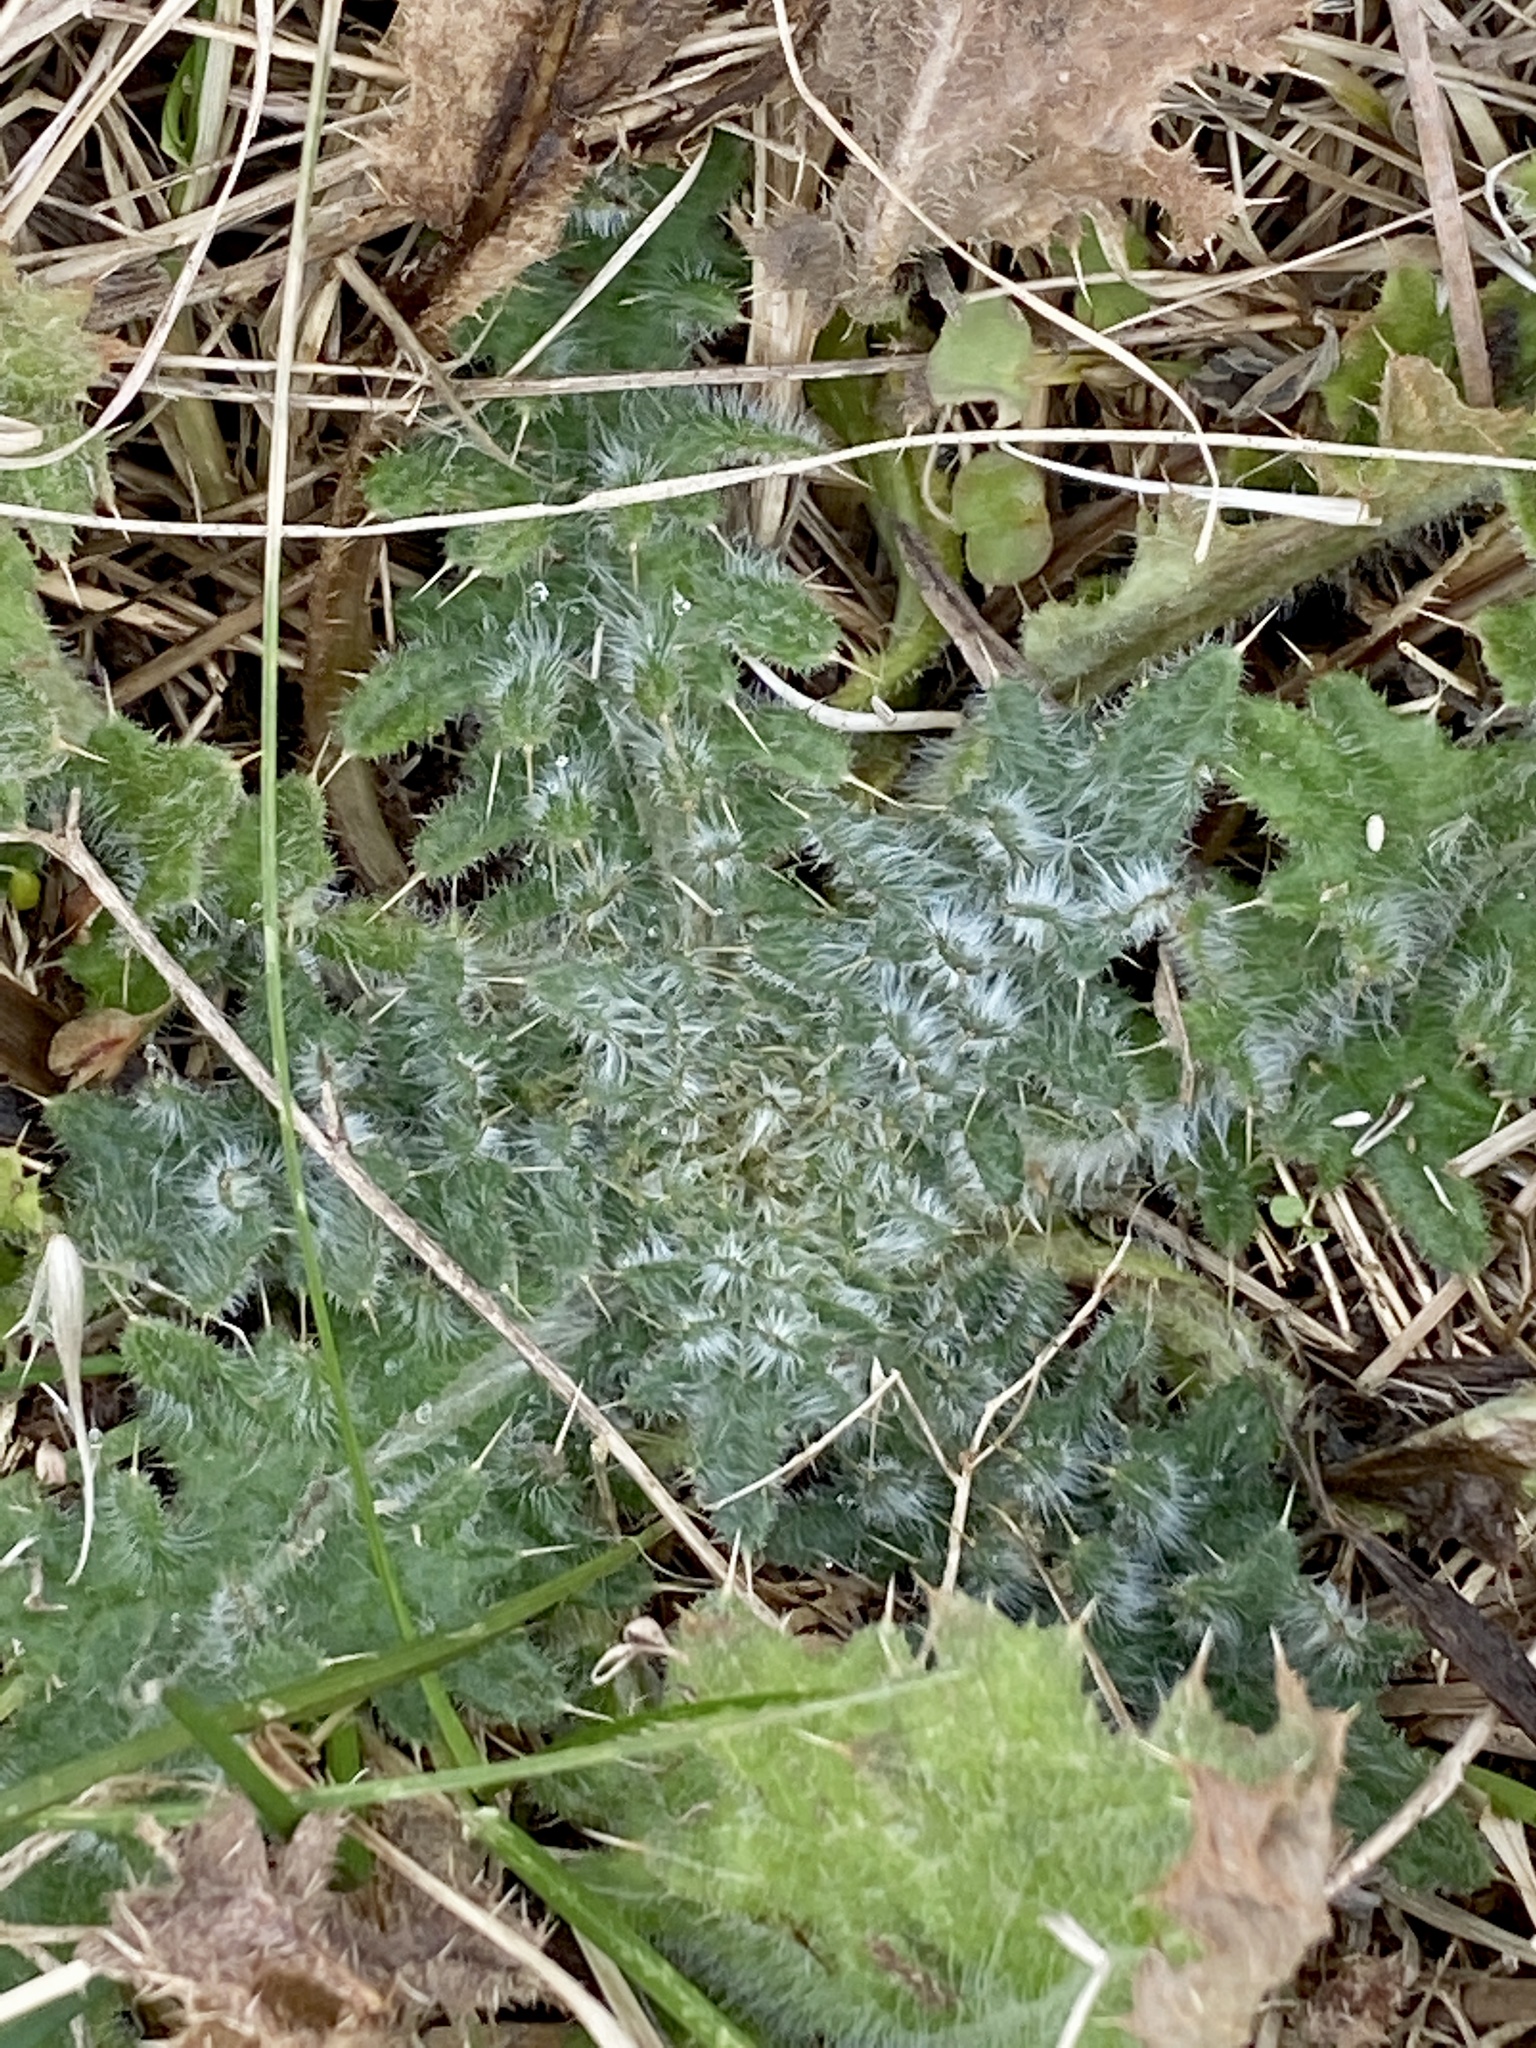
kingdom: Plantae
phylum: Tracheophyta
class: Magnoliopsida
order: Asterales
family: Asteraceae
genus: Cirsium
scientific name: Cirsium vulgare
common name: Bull thistle
